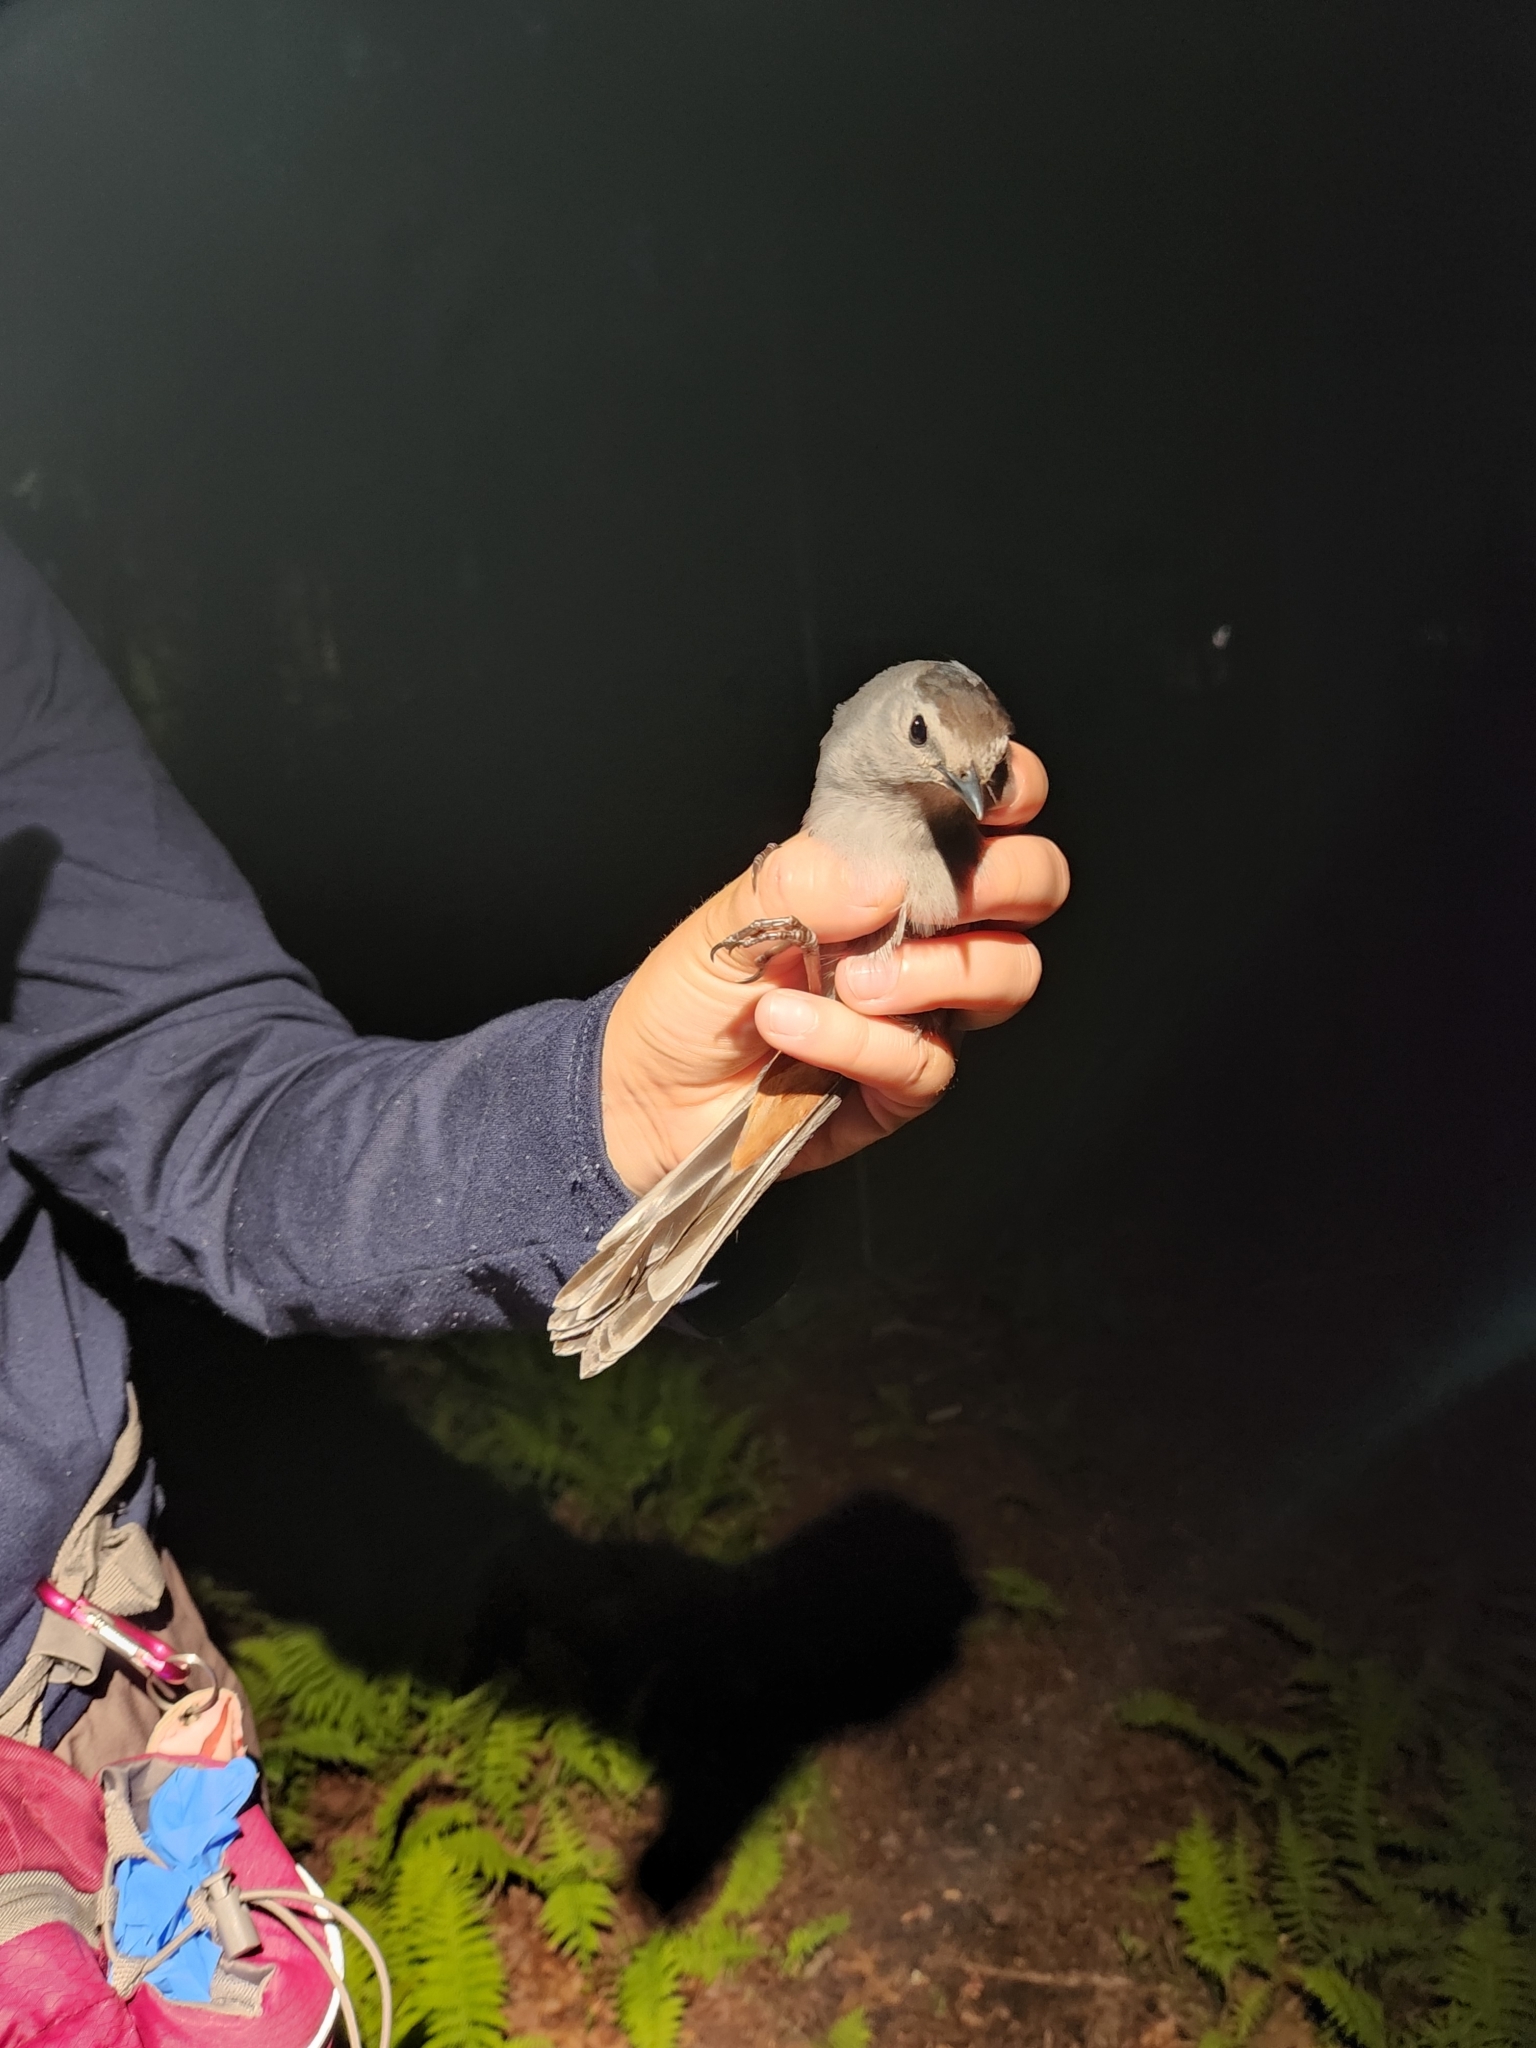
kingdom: Animalia
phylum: Chordata
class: Aves
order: Passeriformes
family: Mimidae
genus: Dumetella
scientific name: Dumetella carolinensis
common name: Gray catbird
